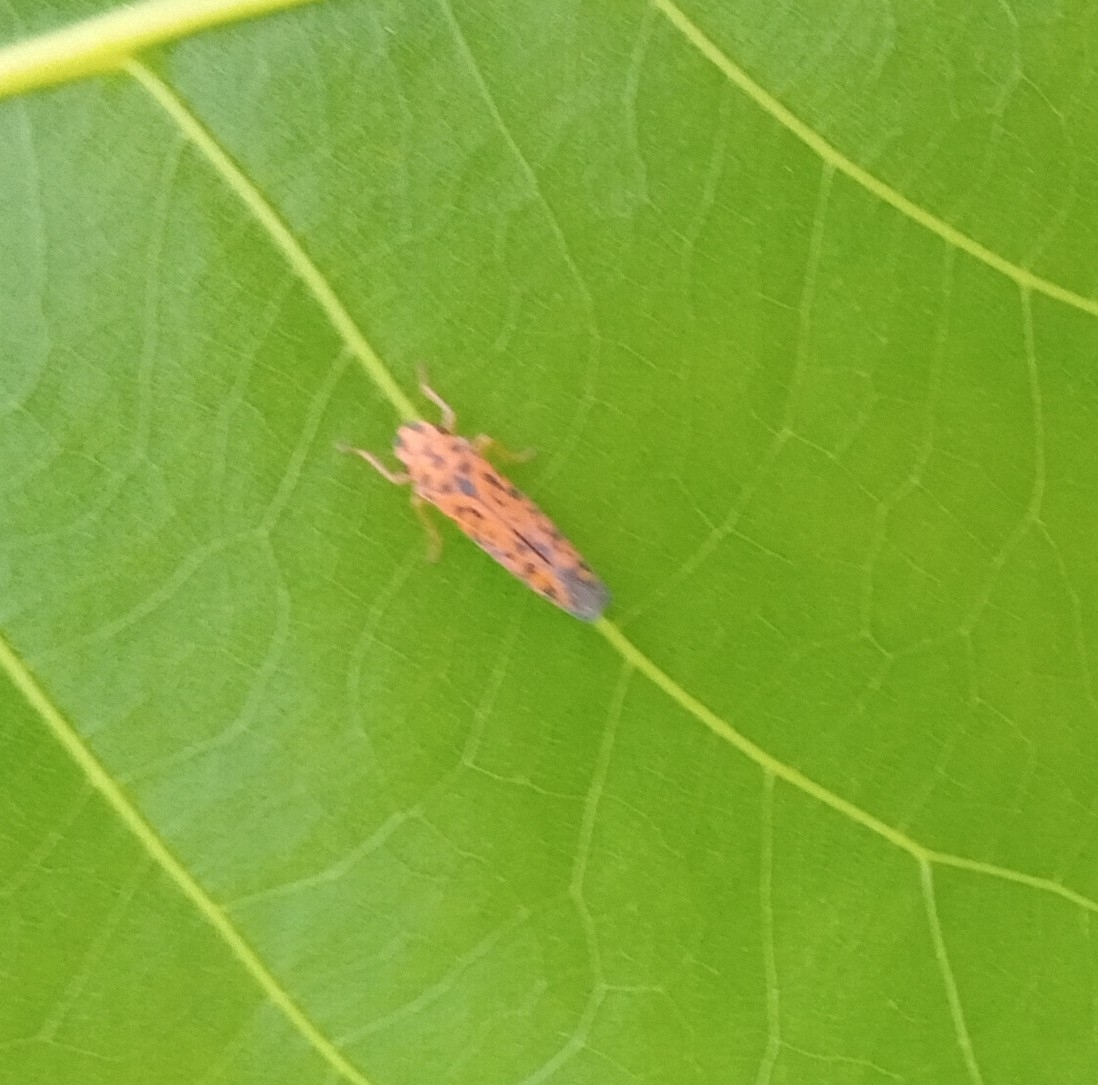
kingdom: Animalia
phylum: Arthropoda
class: Insecta
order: Hemiptera
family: Cicadellidae
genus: Pawiloma
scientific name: Pawiloma victima
